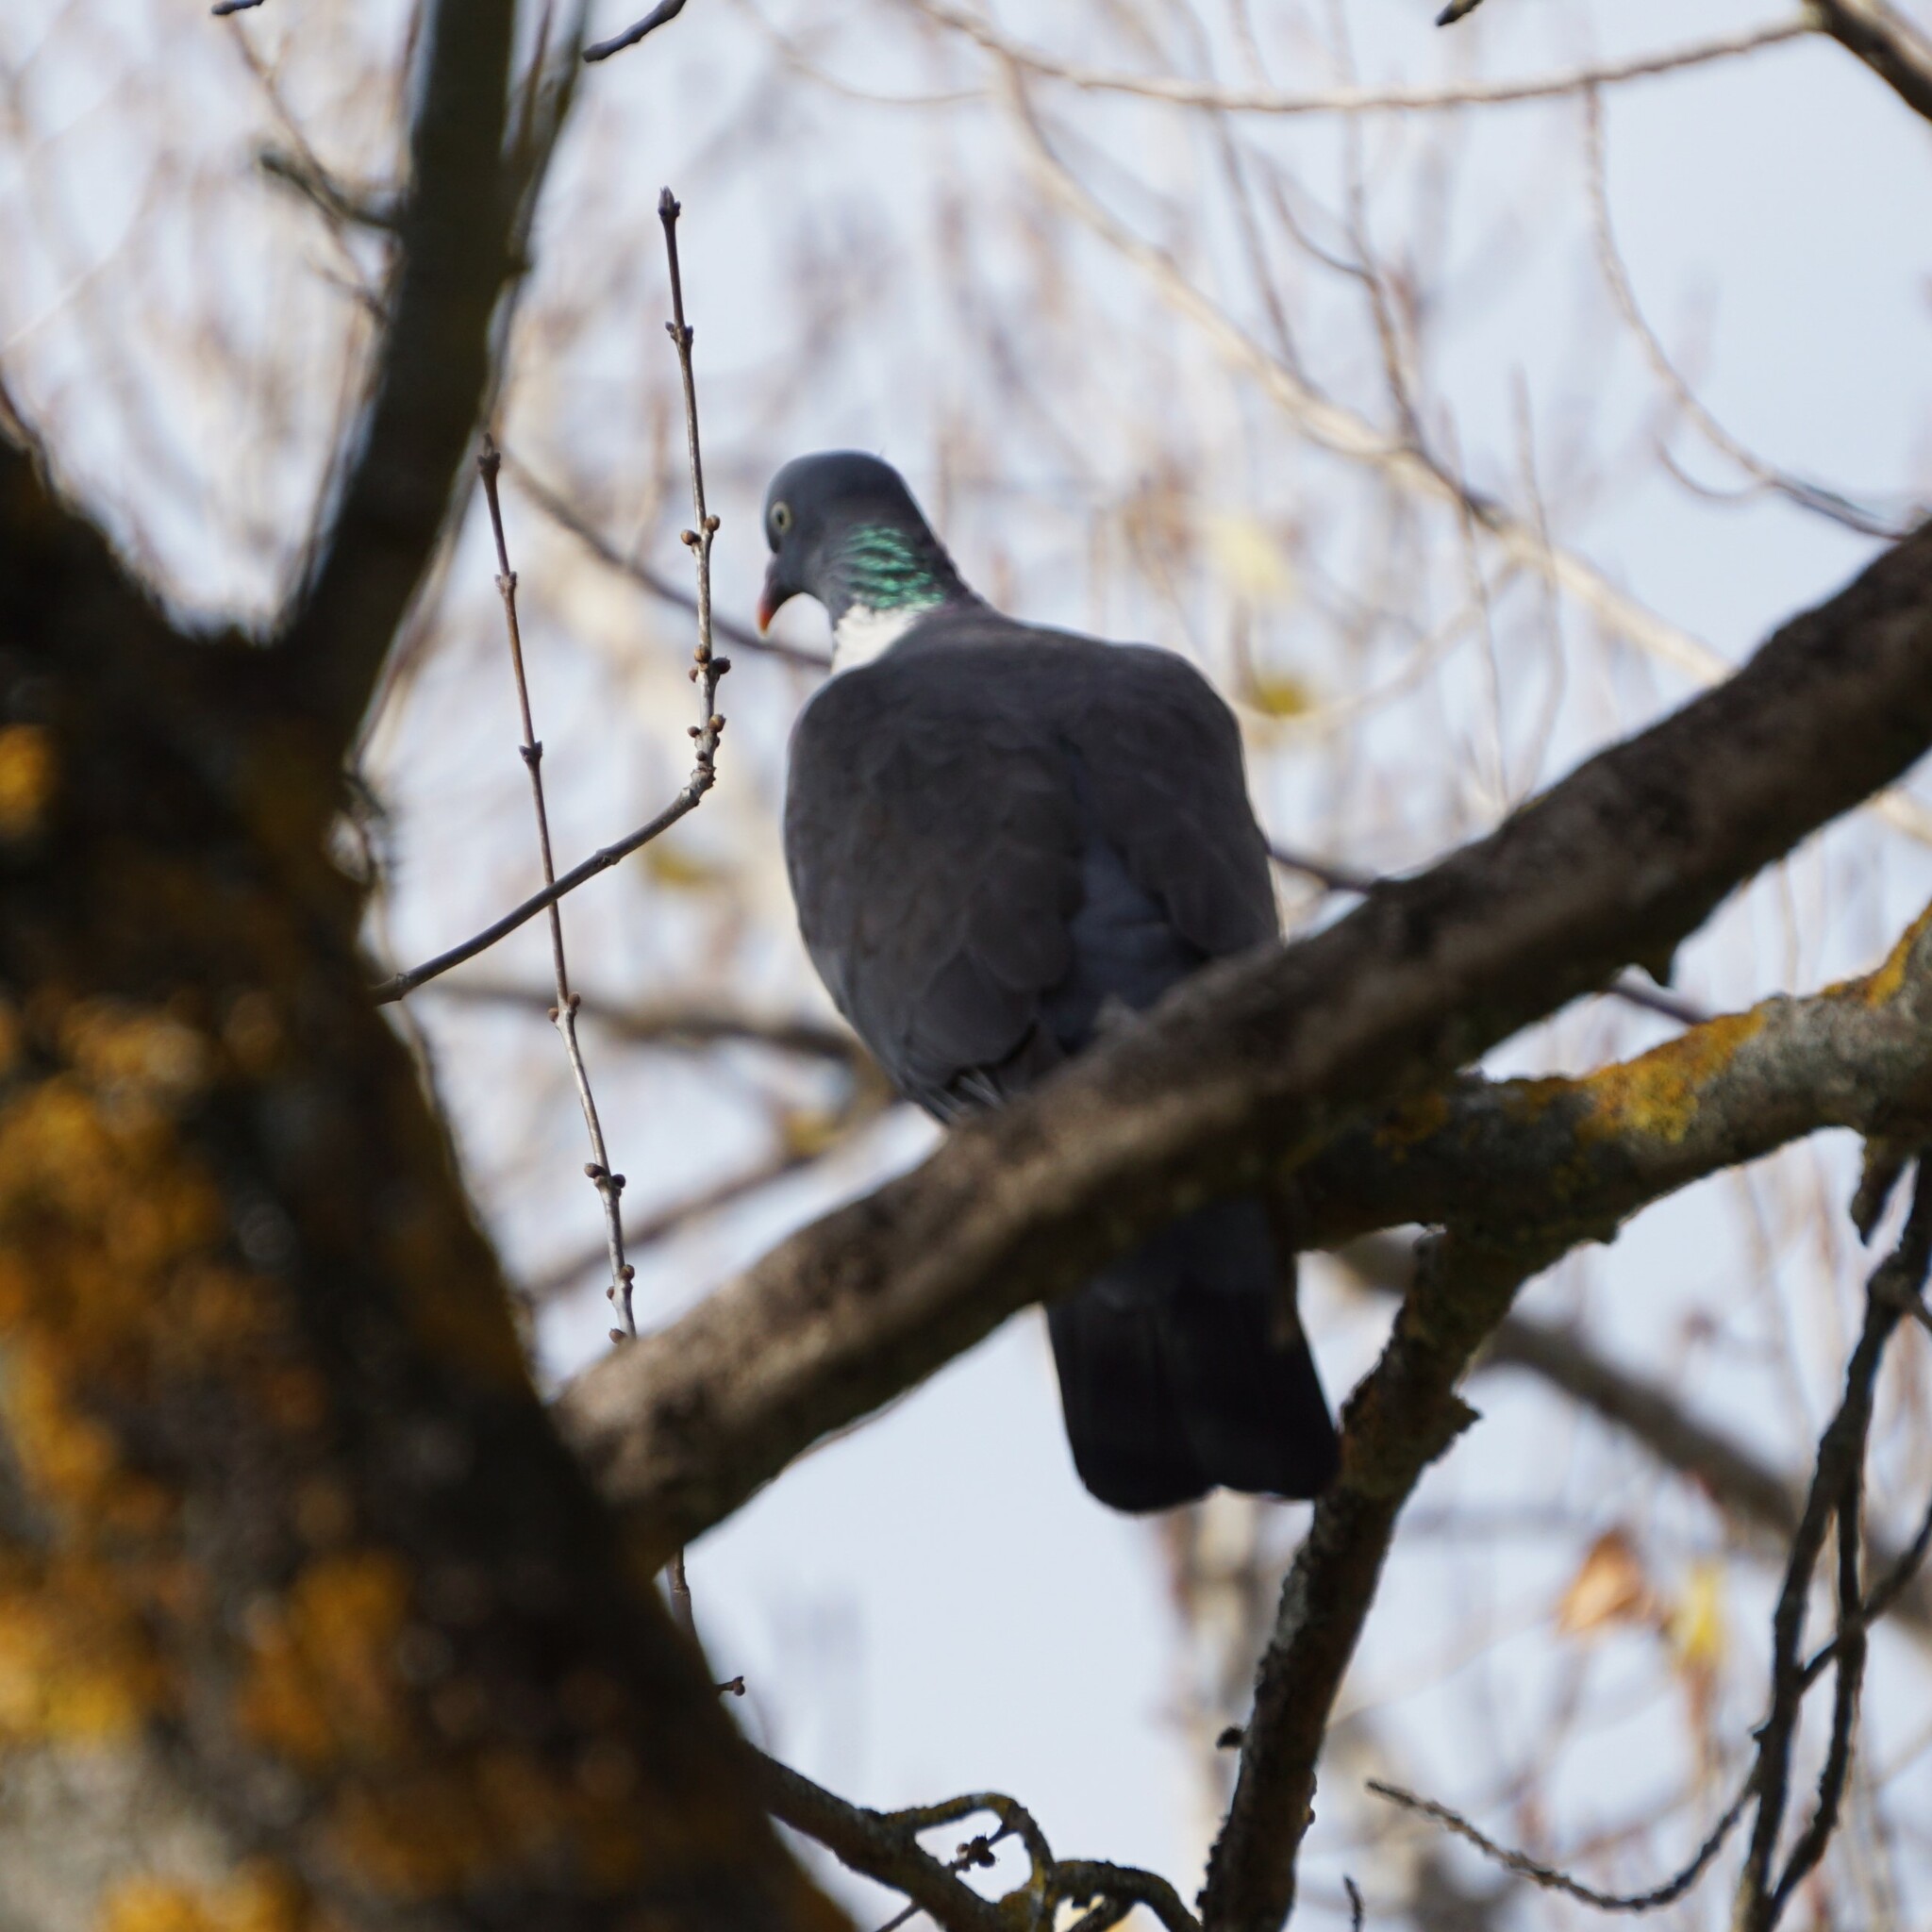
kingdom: Animalia
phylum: Chordata
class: Aves
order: Columbiformes
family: Columbidae
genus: Columba
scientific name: Columba palumbus
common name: Common wood pigeon
